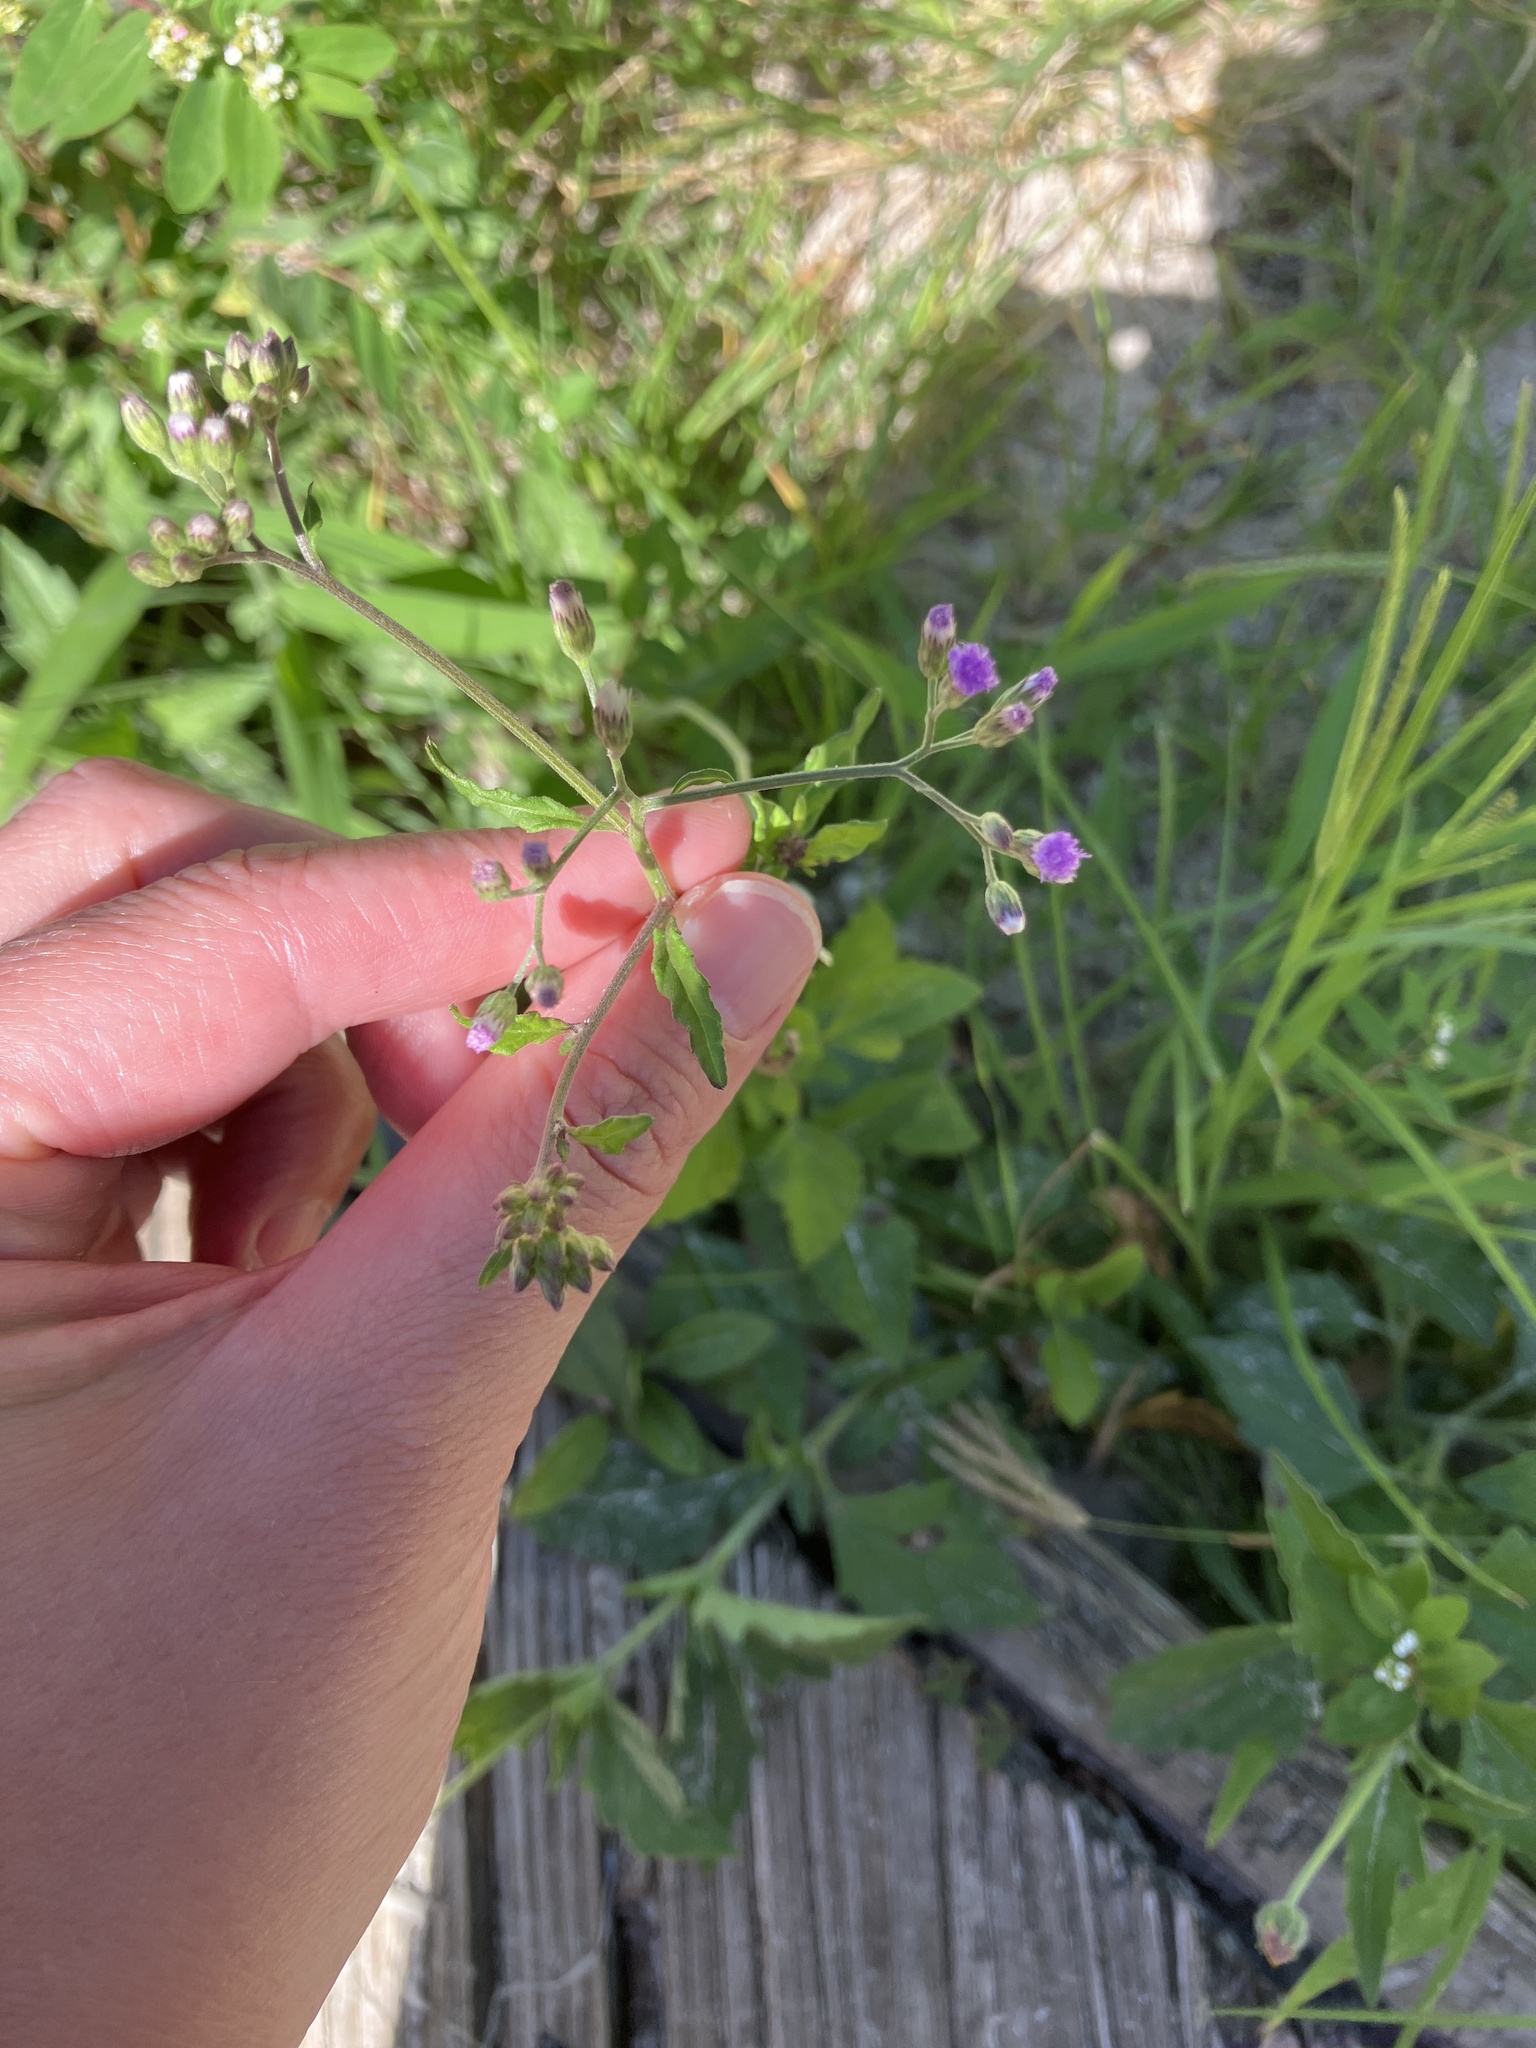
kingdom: Plantae
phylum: Tracheophyta
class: Magnoliopsida
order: Asterales
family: Asteraceae
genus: Cyanthillium
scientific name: Cyanthillium cinereum
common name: Little ironweed
